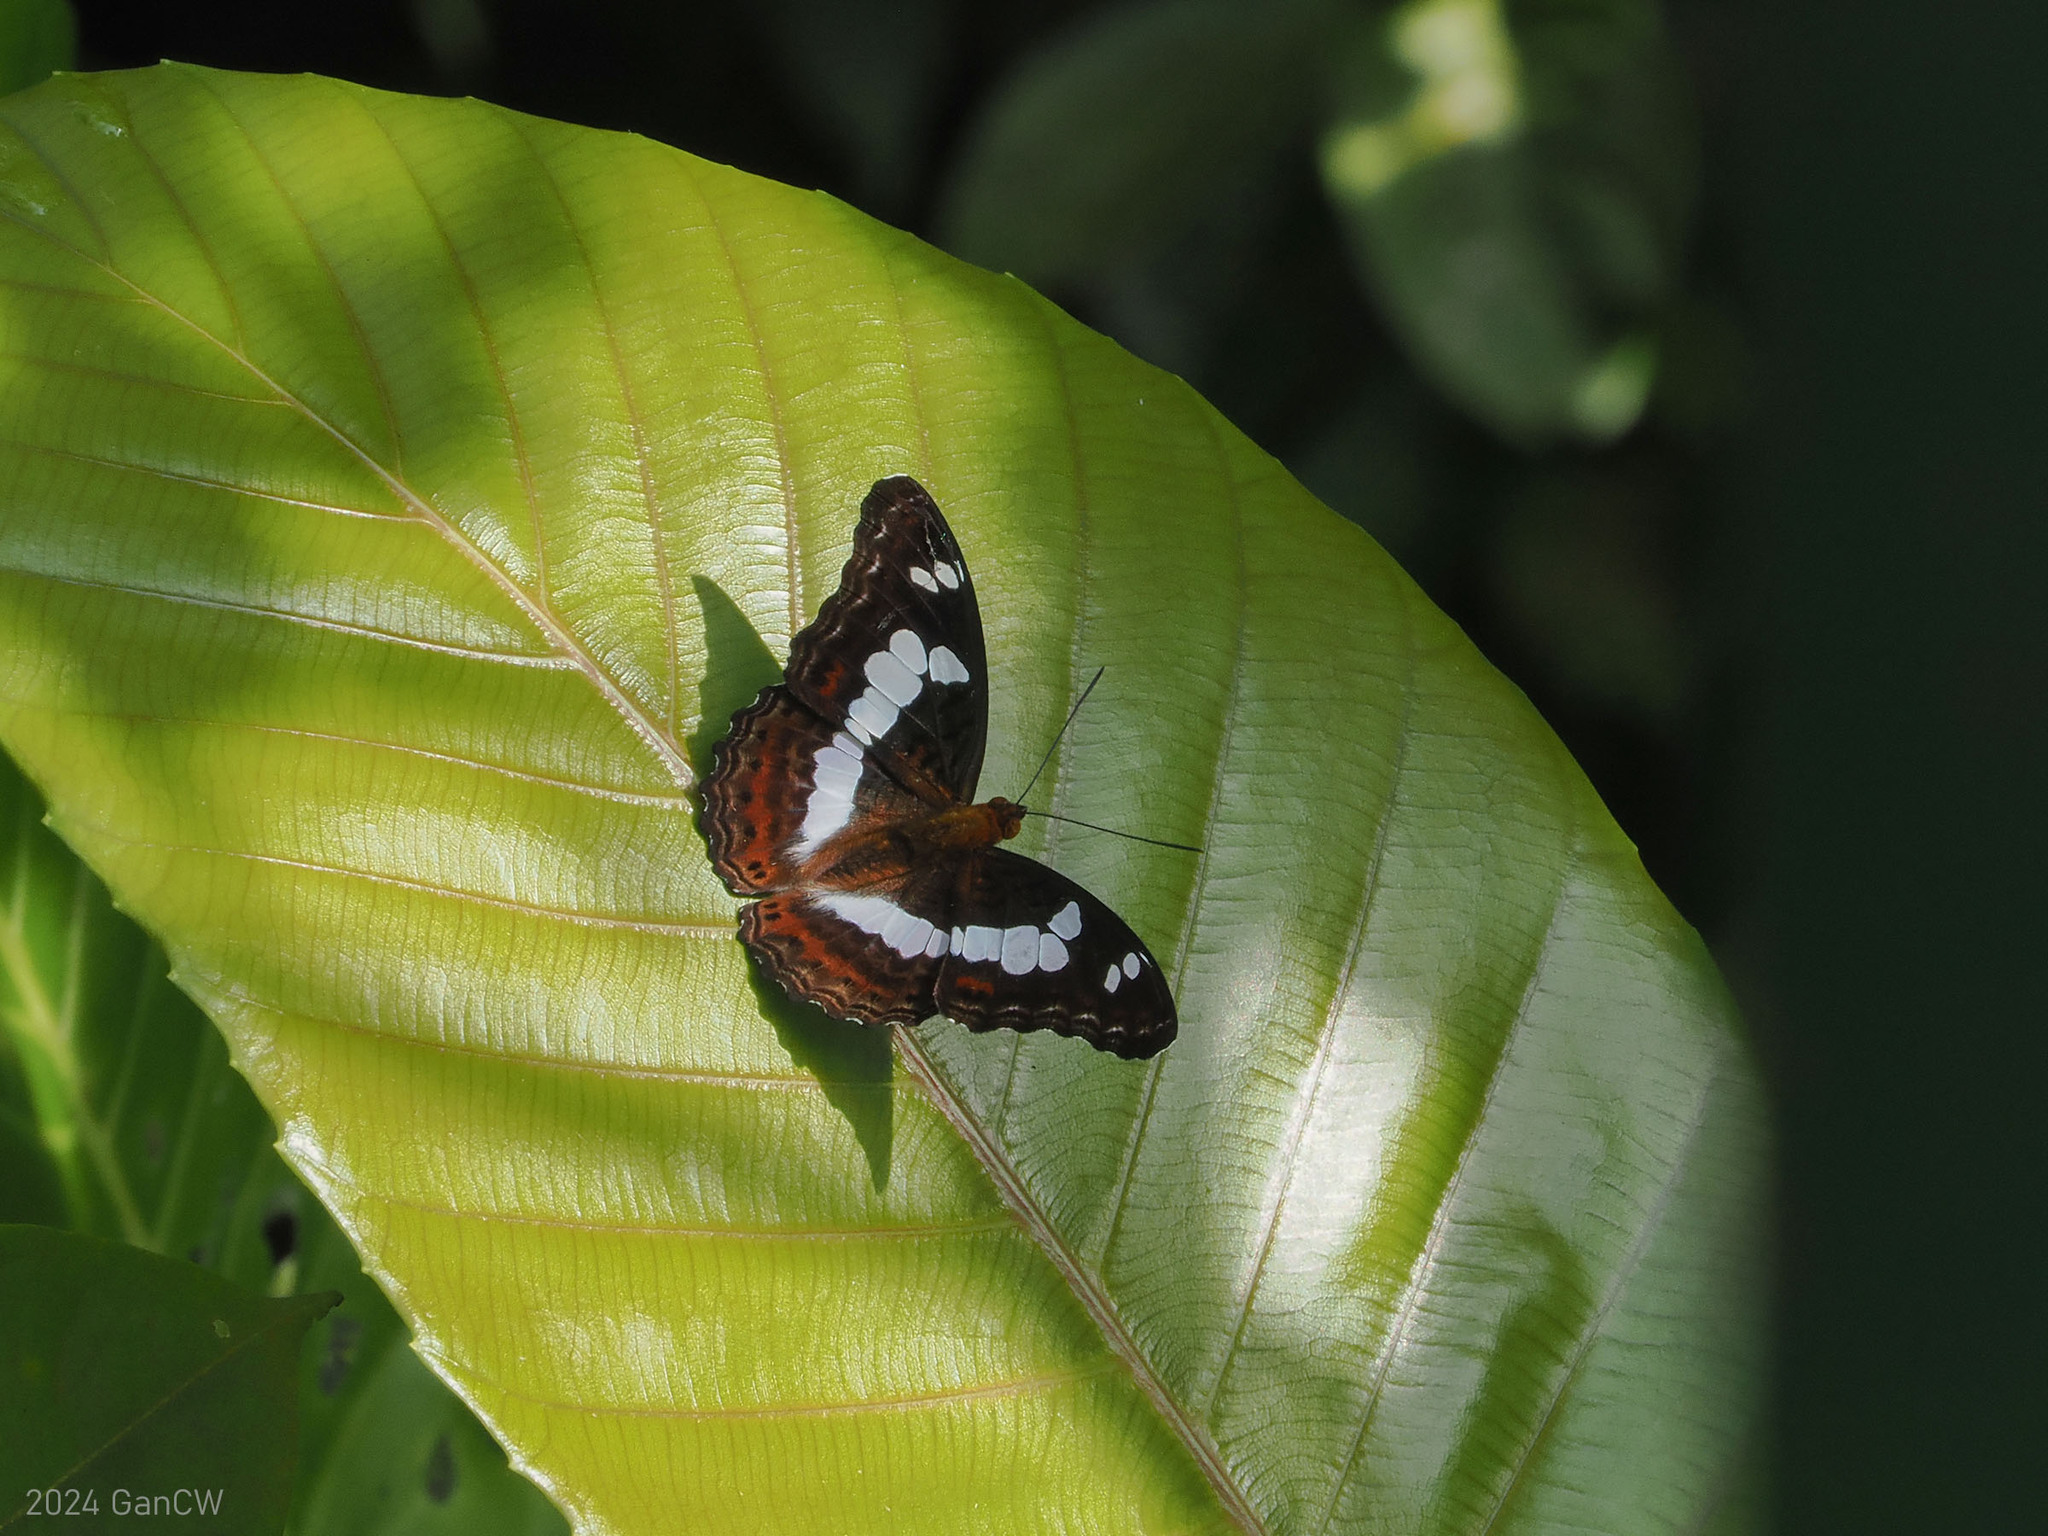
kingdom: Animalia
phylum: Arthropoda
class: Insecta
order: Lepidoptera
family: Nymphalidae
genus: Limenitis
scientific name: Limenitis Moduza procris
